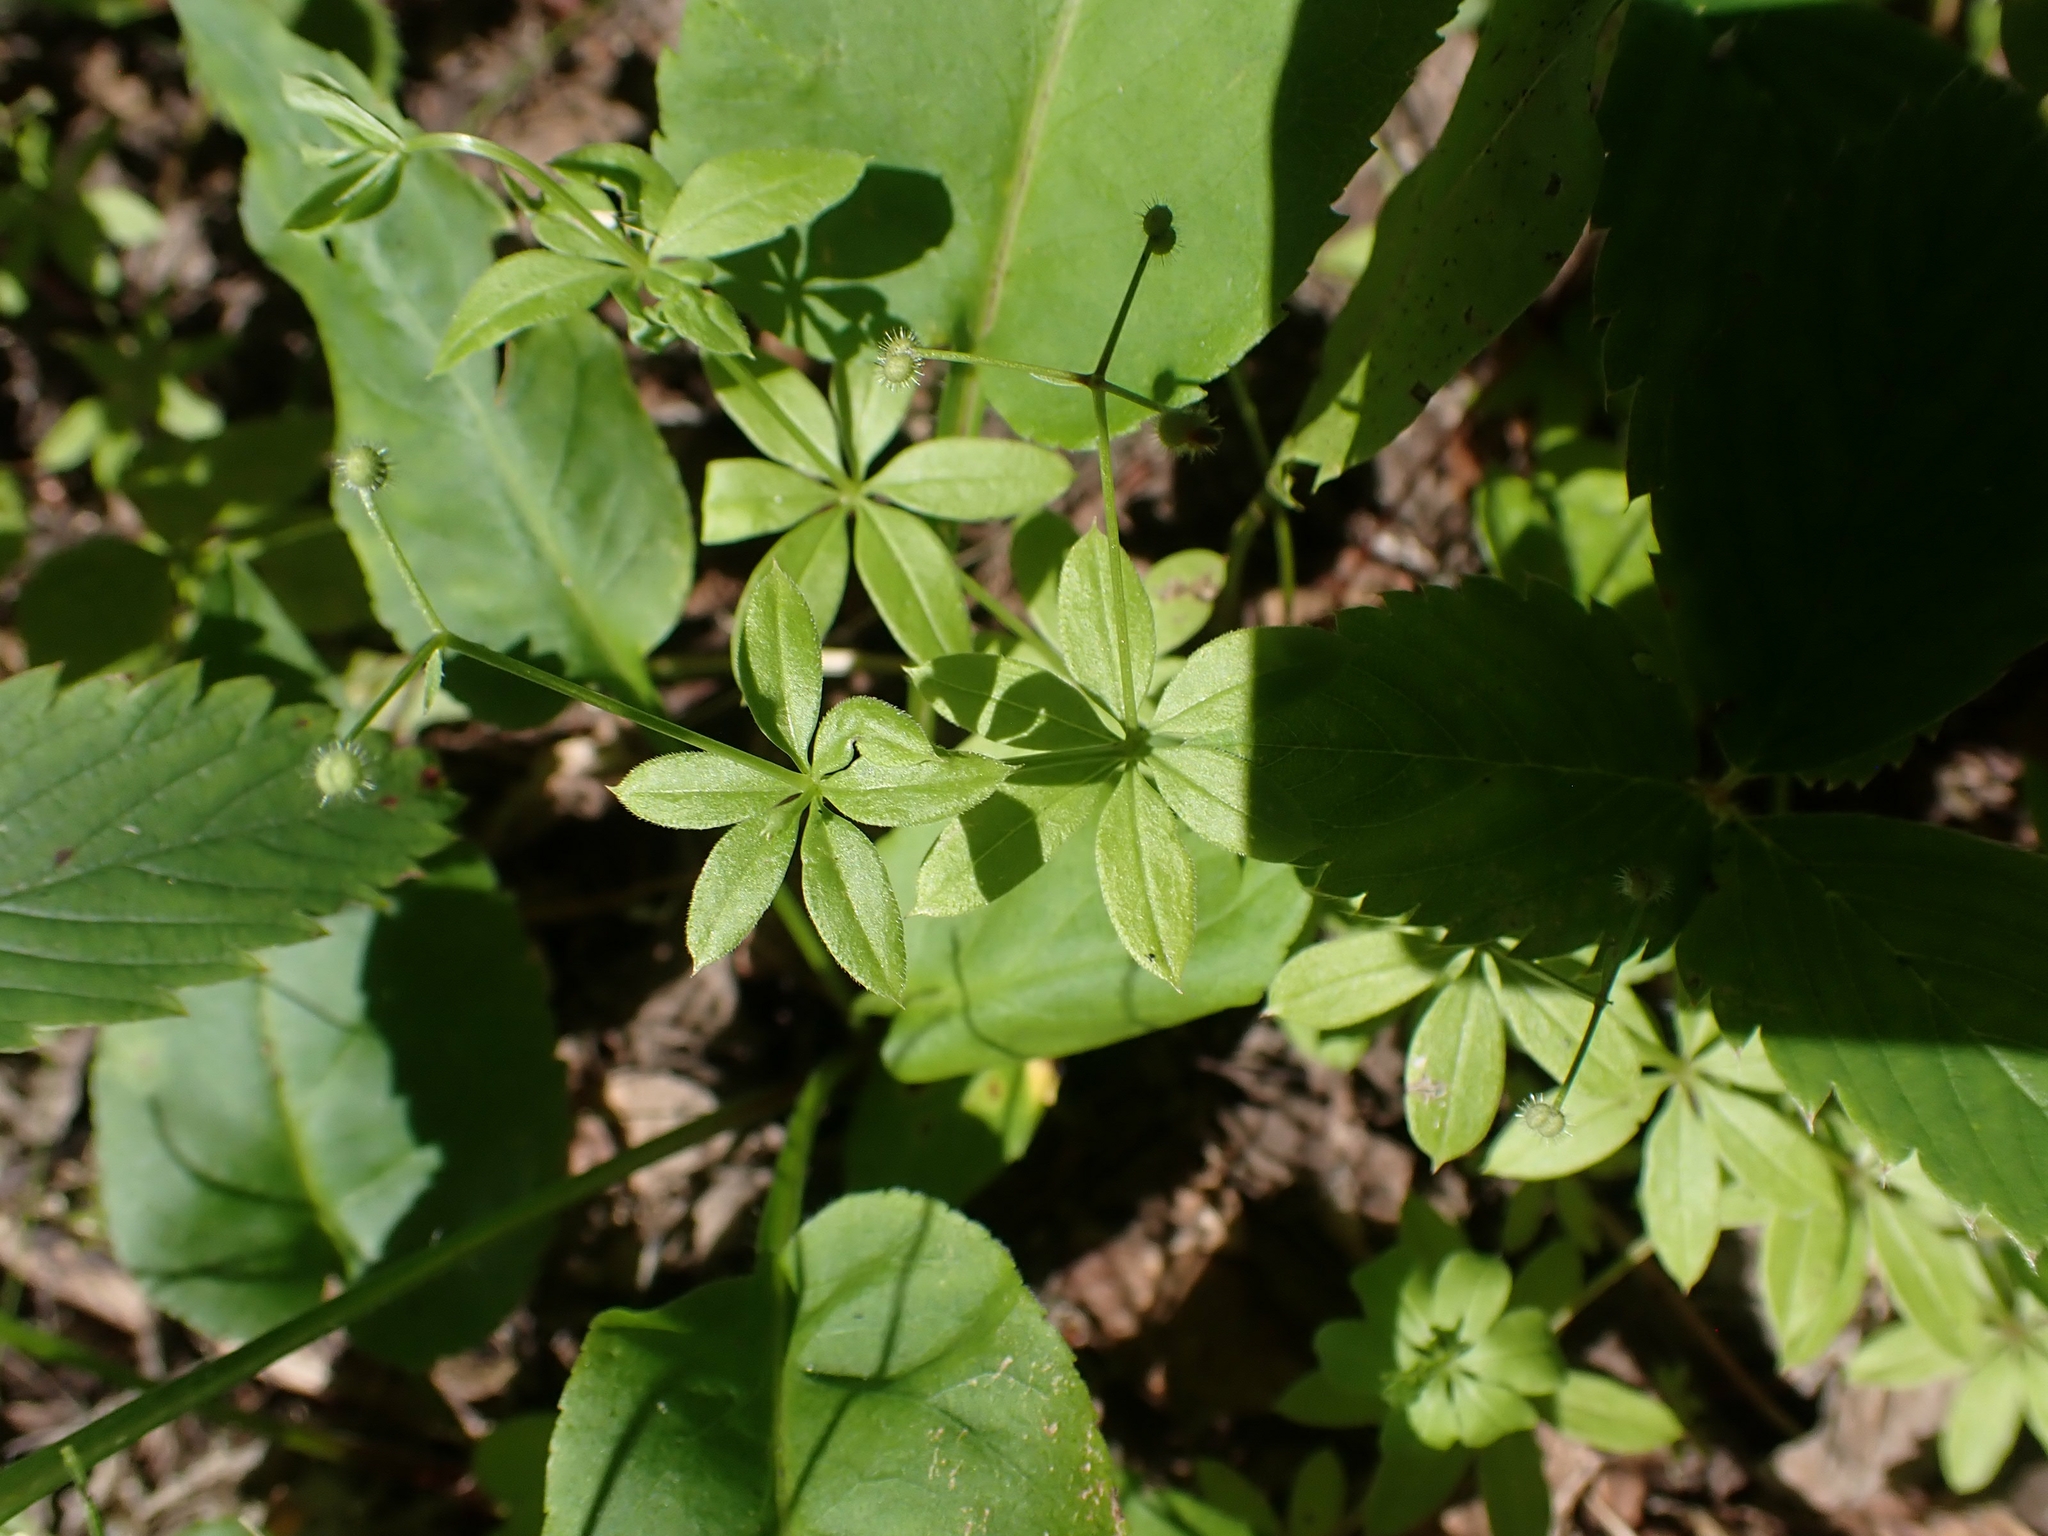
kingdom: Plantae
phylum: Tracheophyta
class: Magnoliopsida
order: Gentianales
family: Rubiaceae
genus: Galium
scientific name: Galium triflorum
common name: Fragrant bedstraw
